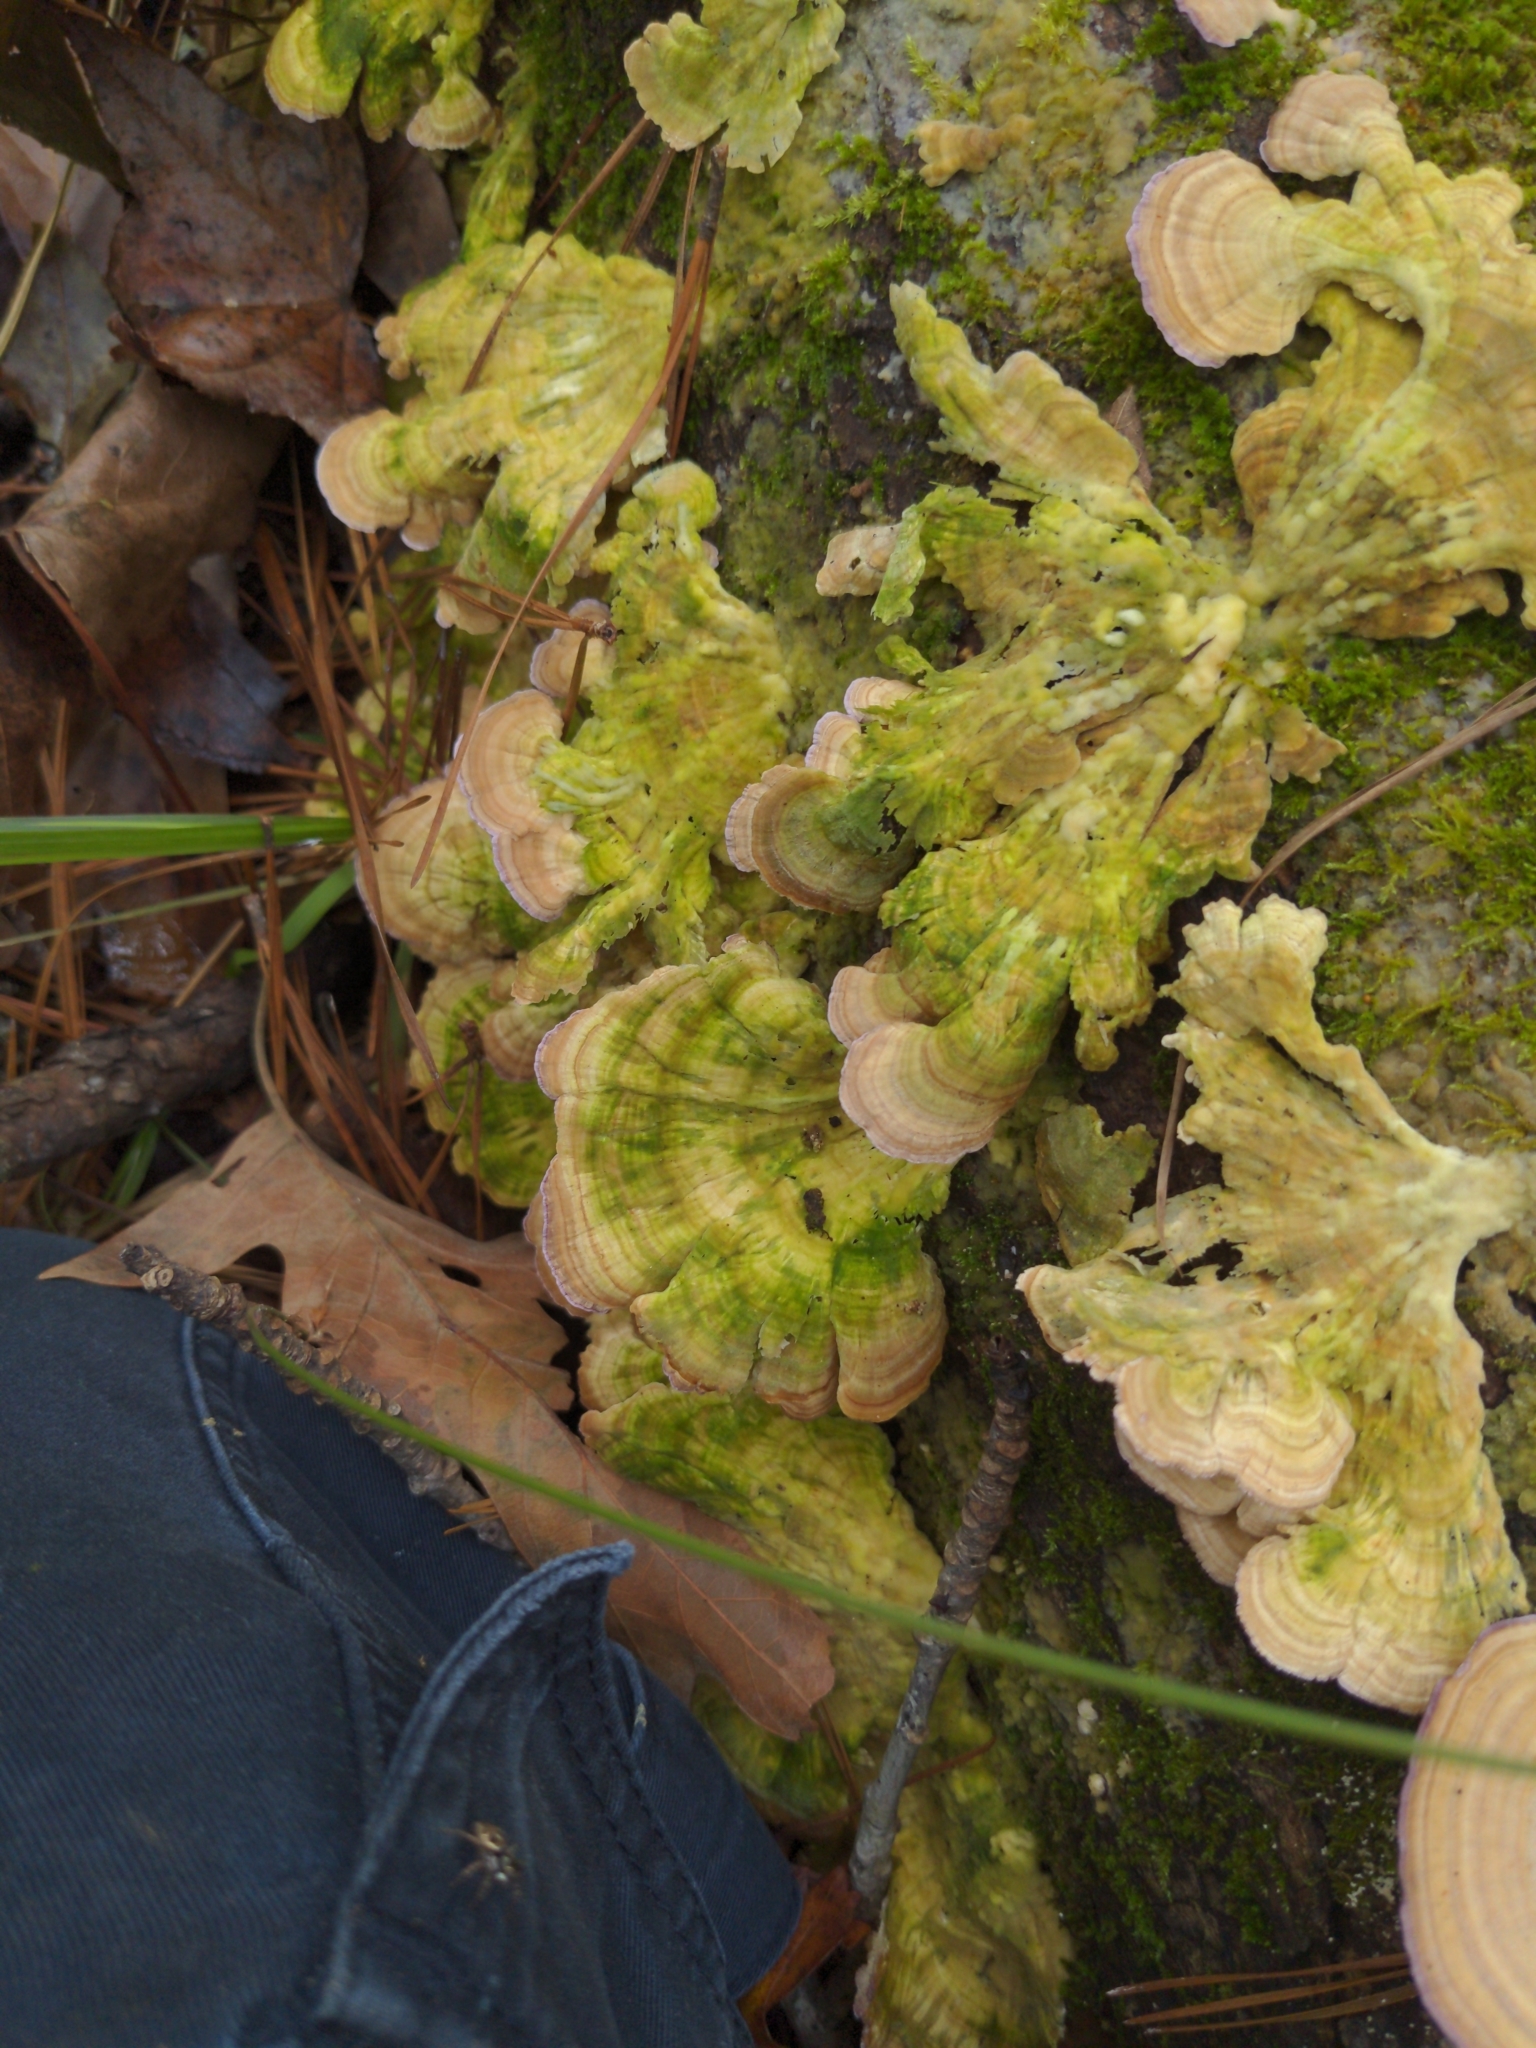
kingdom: Fungi
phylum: Basidiomycota
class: Agaricomycetes
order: Hymenochaetales
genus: Trichaptum
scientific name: Trichaptum biforme
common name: Violet-toothed polypore
